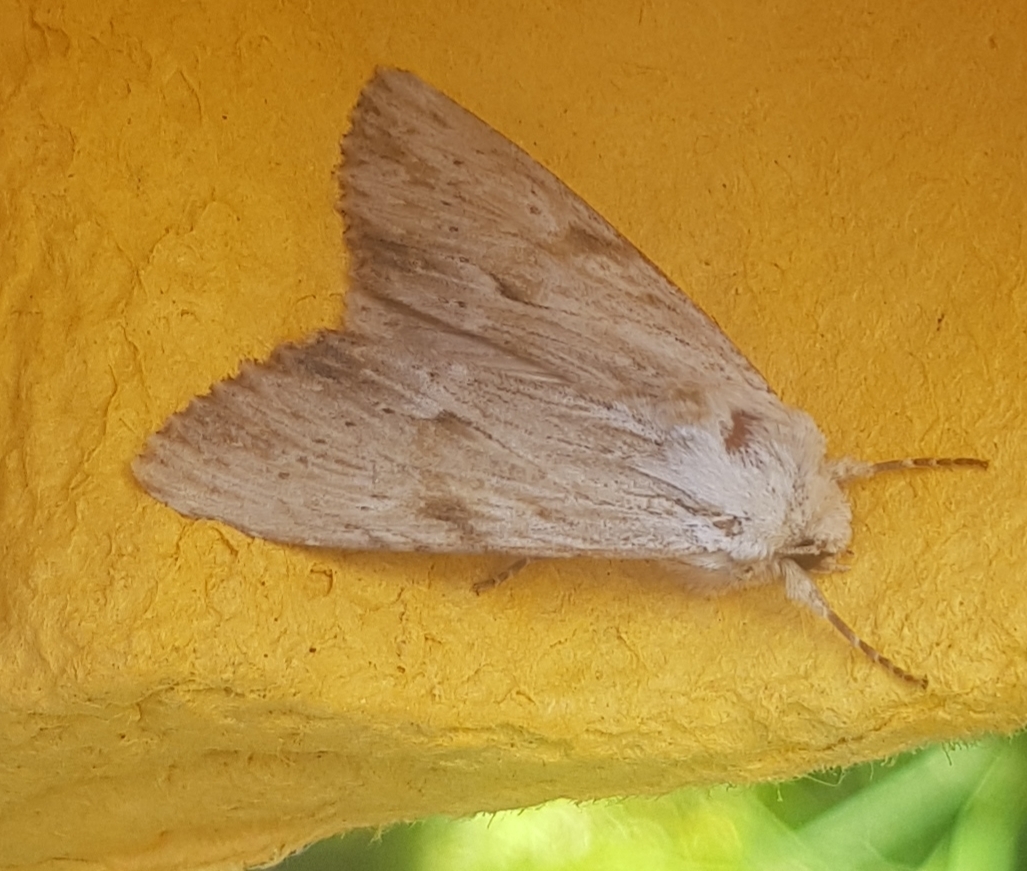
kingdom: Animalia
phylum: Arthropoda
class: Insecta
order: Lepidoptera
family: Noctuidae
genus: Apamea
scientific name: Apamea lithoxylaea
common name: Light arches
